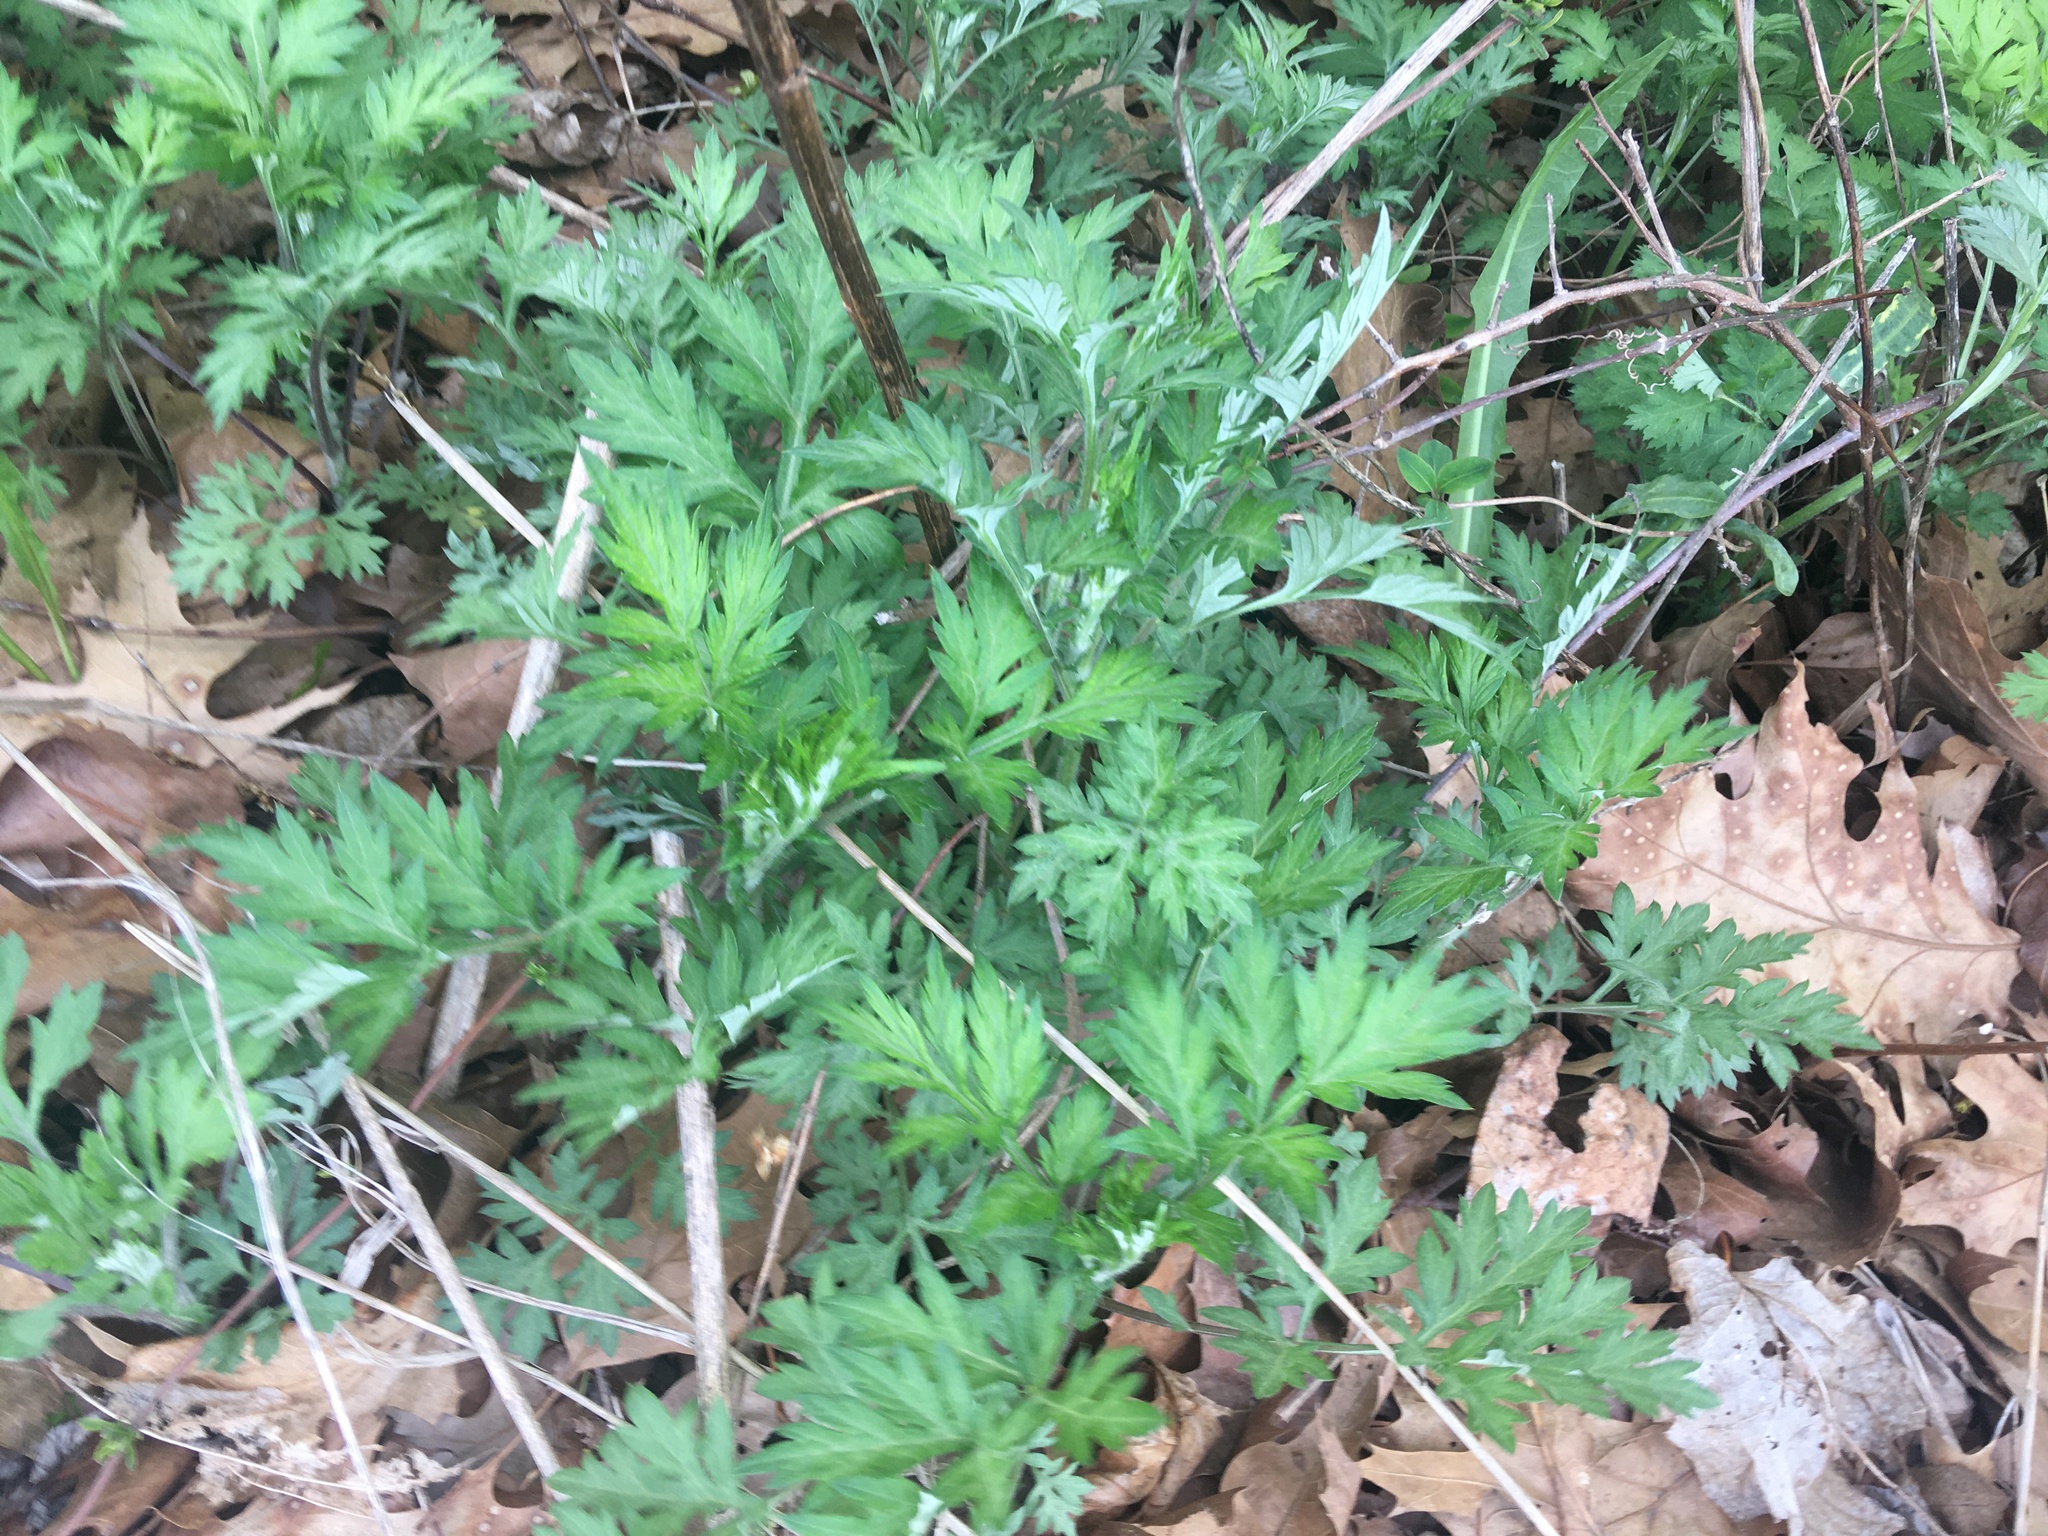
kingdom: Plantae
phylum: Tracheophyta
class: Magnoliopsida
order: Asterales
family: Asteraceae
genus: Artemisia
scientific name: Artemisia vulgaris
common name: Mugwort
